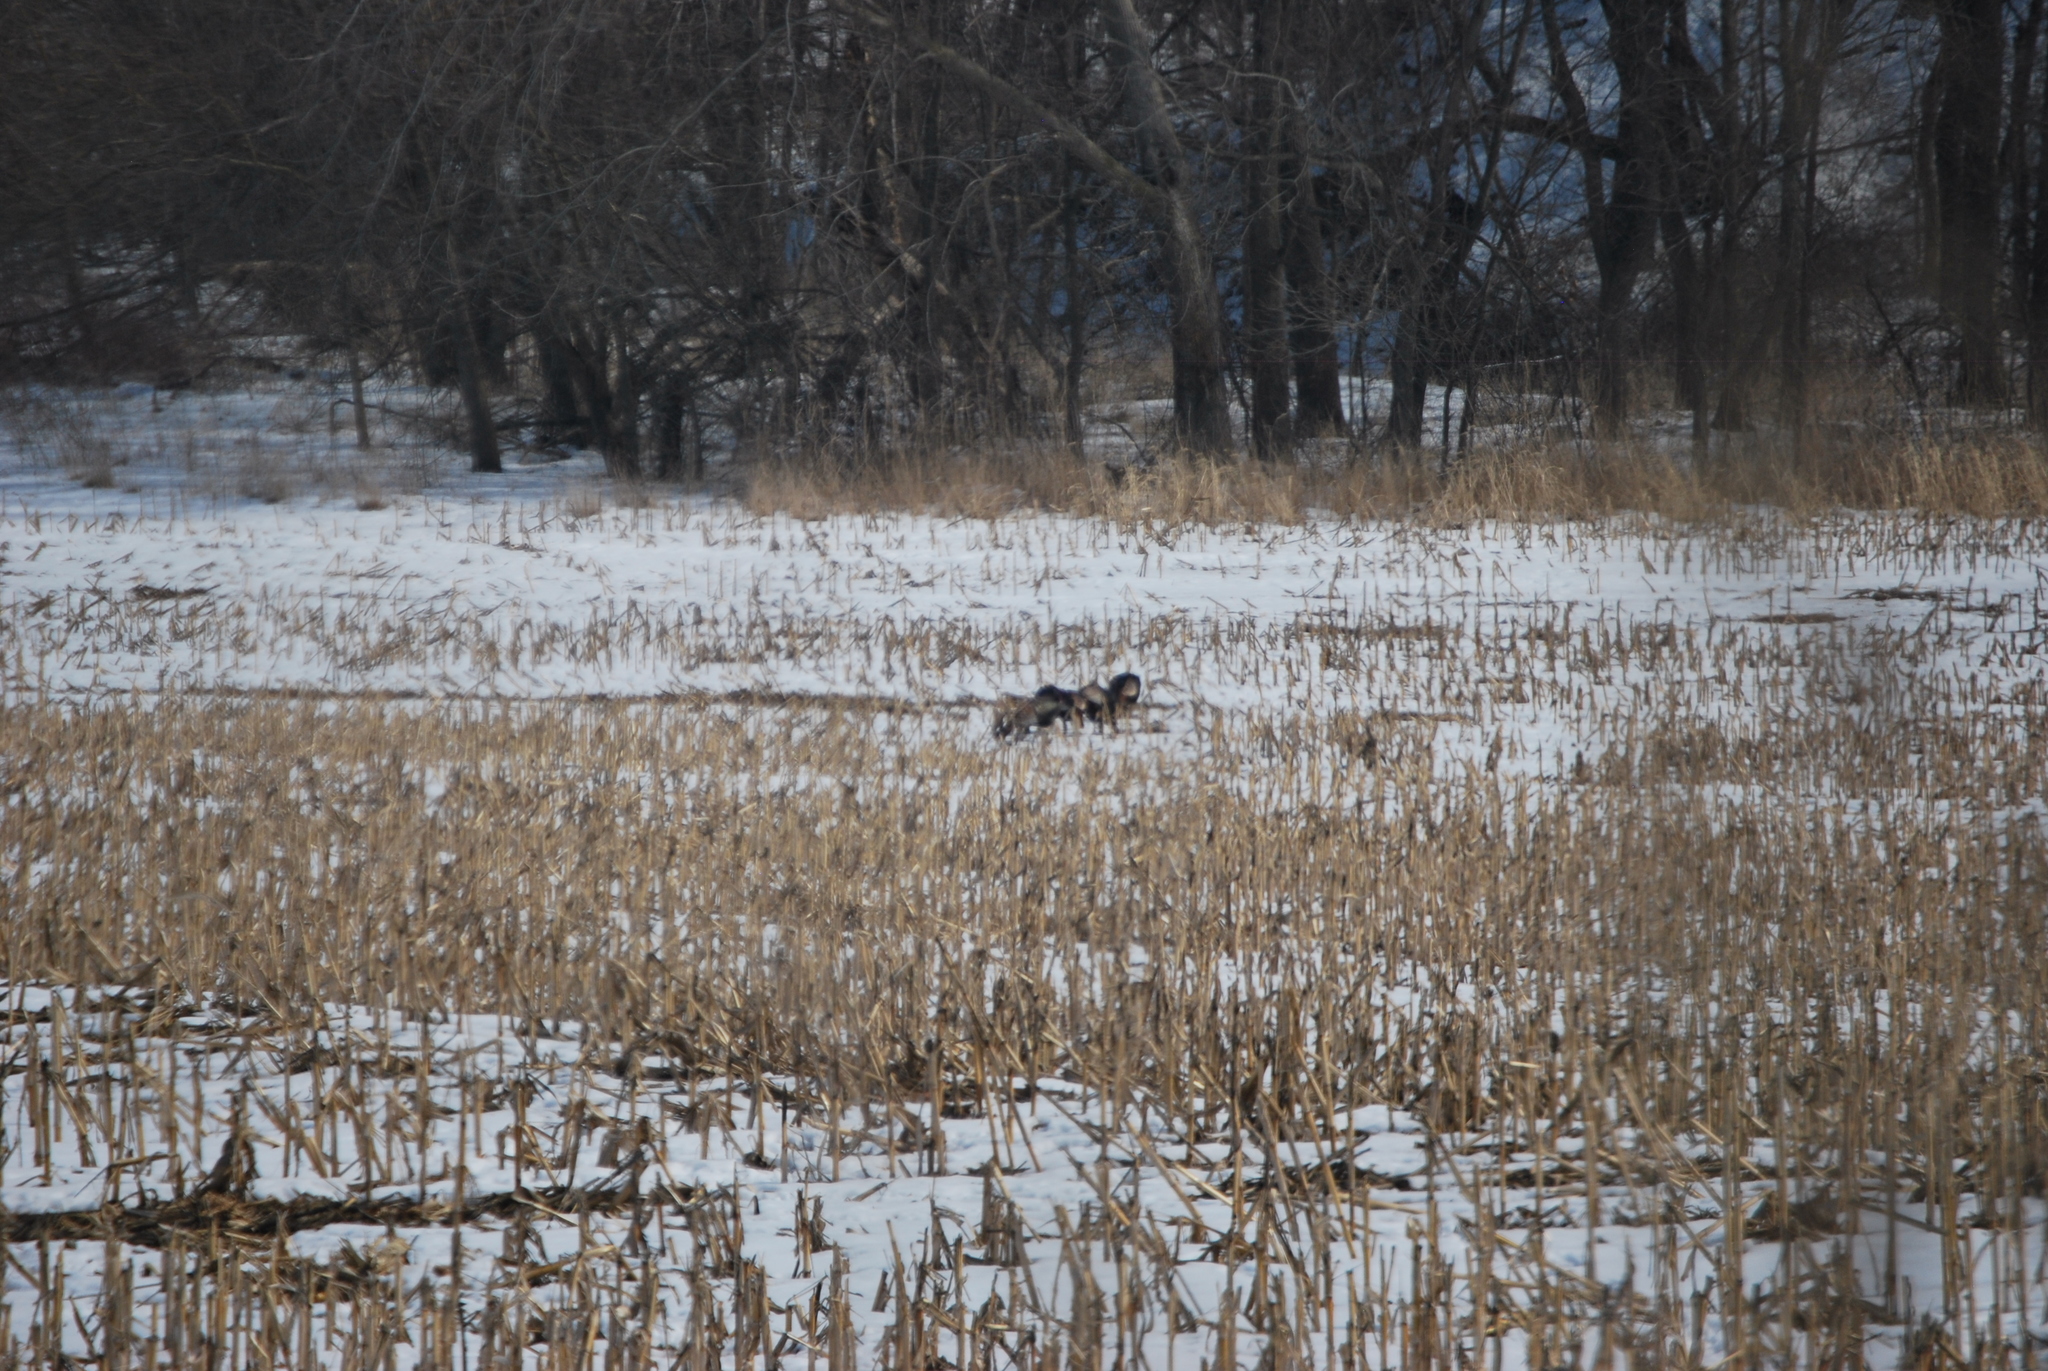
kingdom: Animalia
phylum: Chordata
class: Aves
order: Galliformes
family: Phasianidae
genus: Meleagris
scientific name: Meleagris gallopavo
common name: Wild turkey
